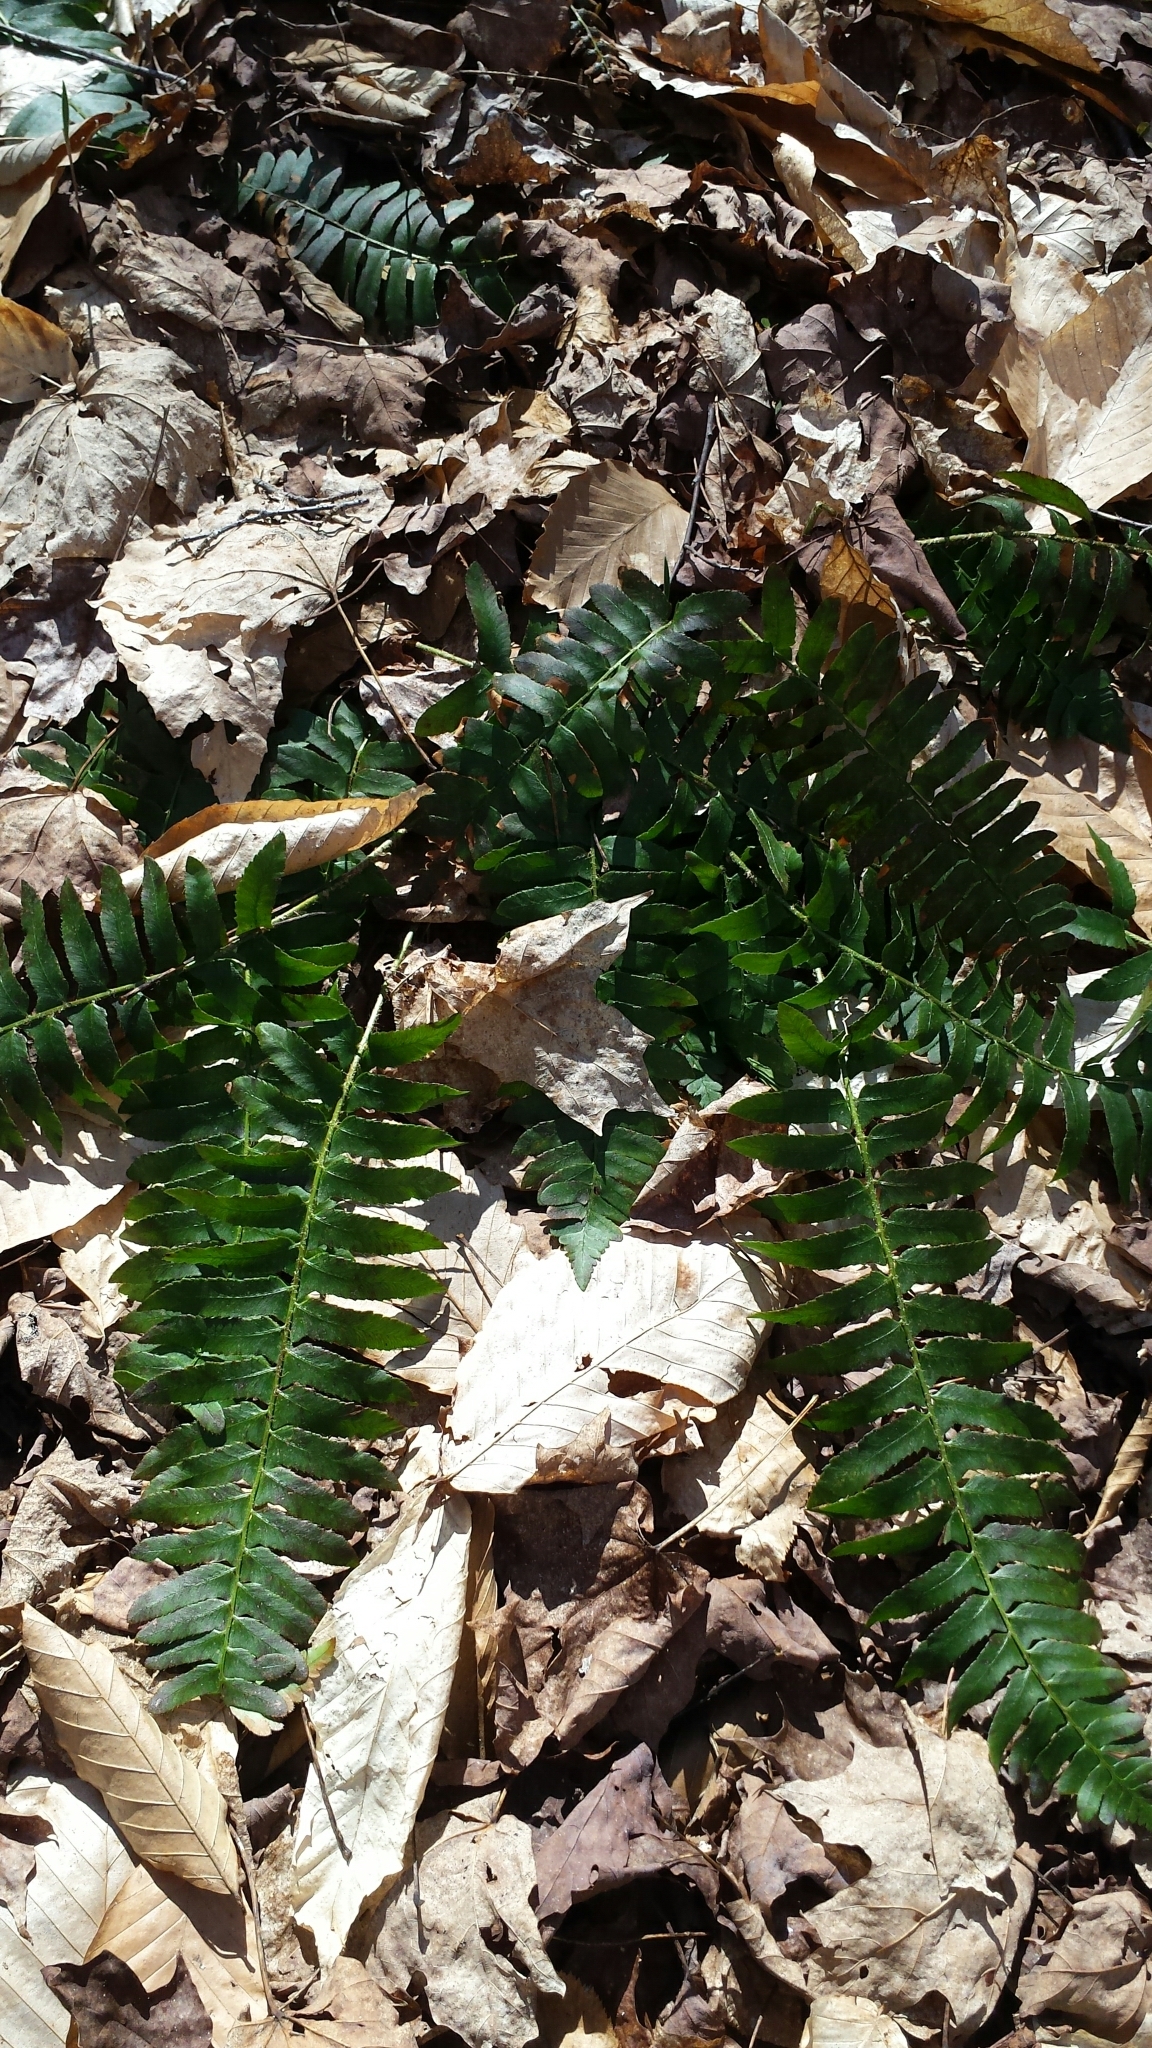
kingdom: Plantae
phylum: Tracheophyta
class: Polypodiopsida
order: Polypodiales
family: Dryopteridaceae
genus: Polystichum
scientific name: Polystichum acrostichoides
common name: Christmas fern
